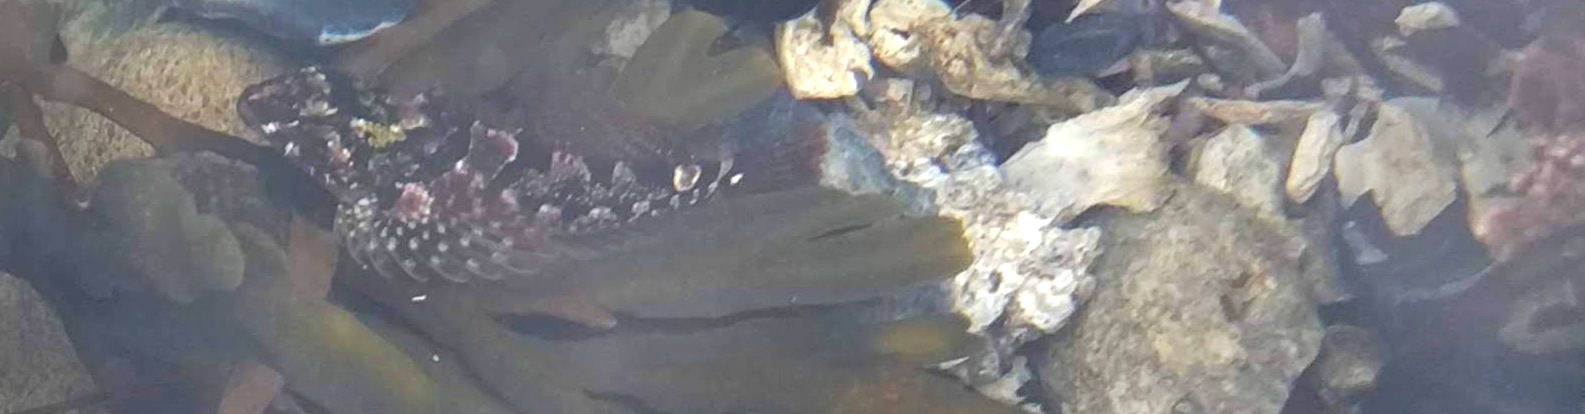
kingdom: Animalia
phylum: Chordata
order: Scorpaeniformes
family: Cottidae
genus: Oligocottus
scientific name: Oligocottus maculosus
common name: Tidepool sculpin
